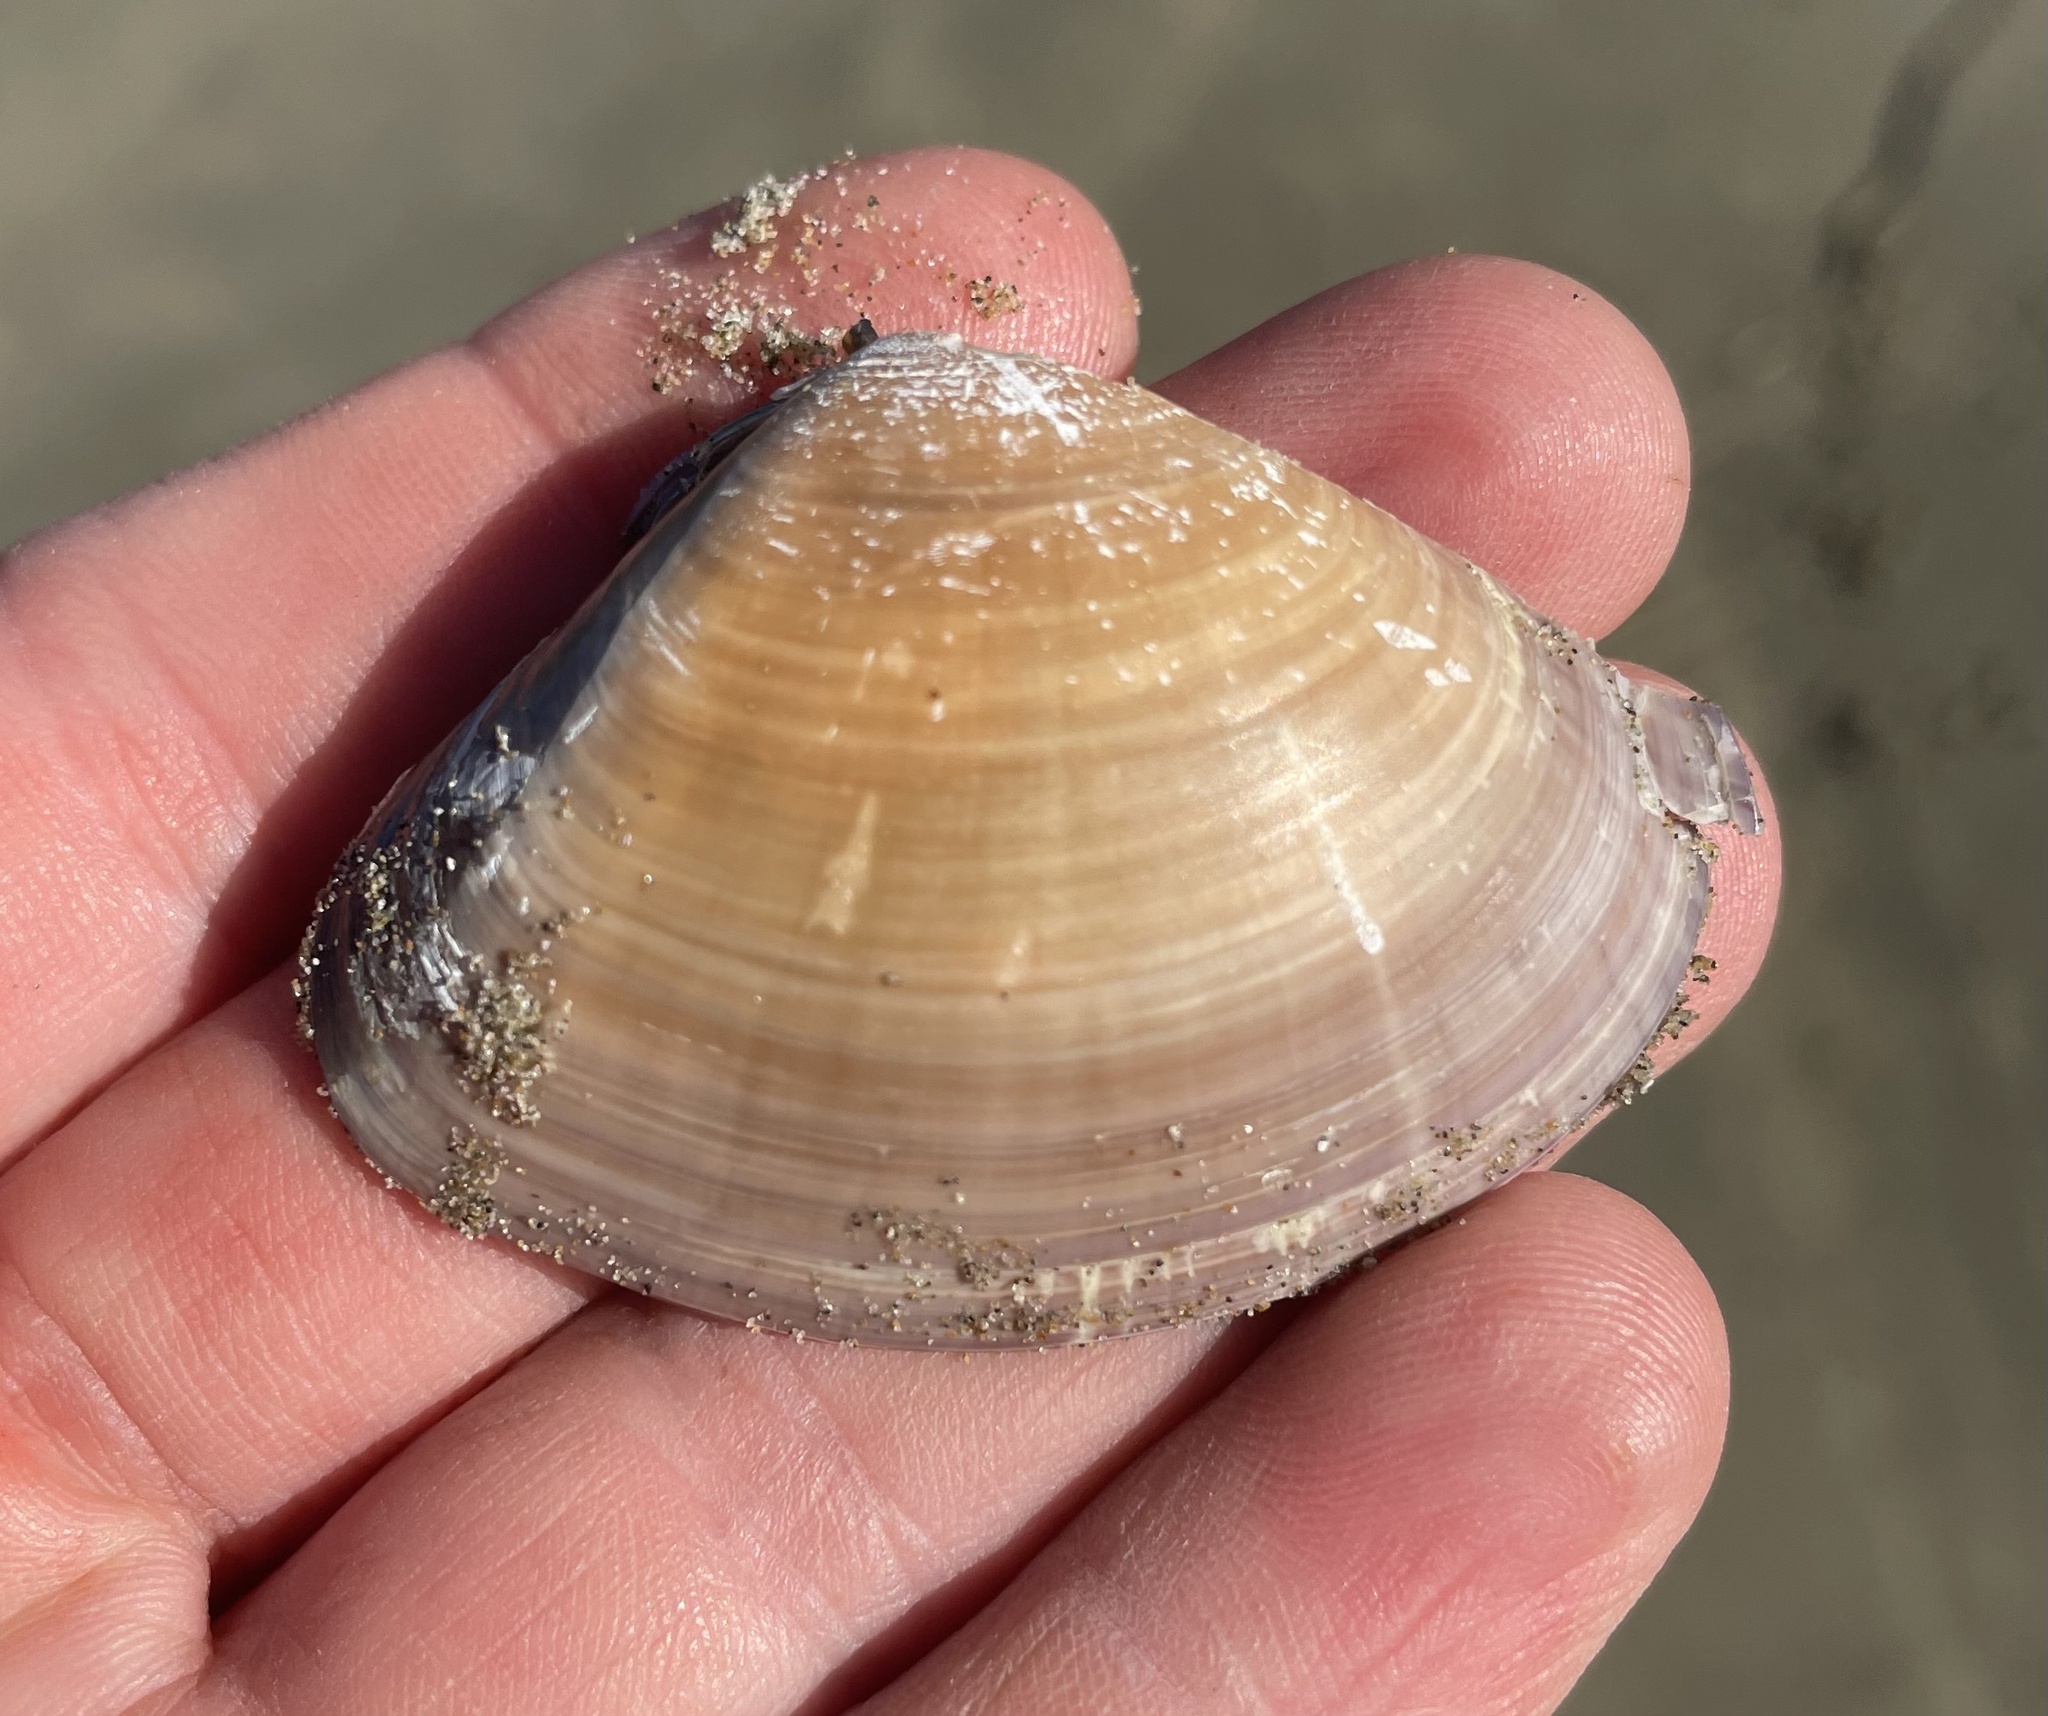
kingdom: Animalia
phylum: Mollusca
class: Bivalvia
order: Venerida
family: Veneridae
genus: Tivela
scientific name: Tivela stultorum
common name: Pismo clam
